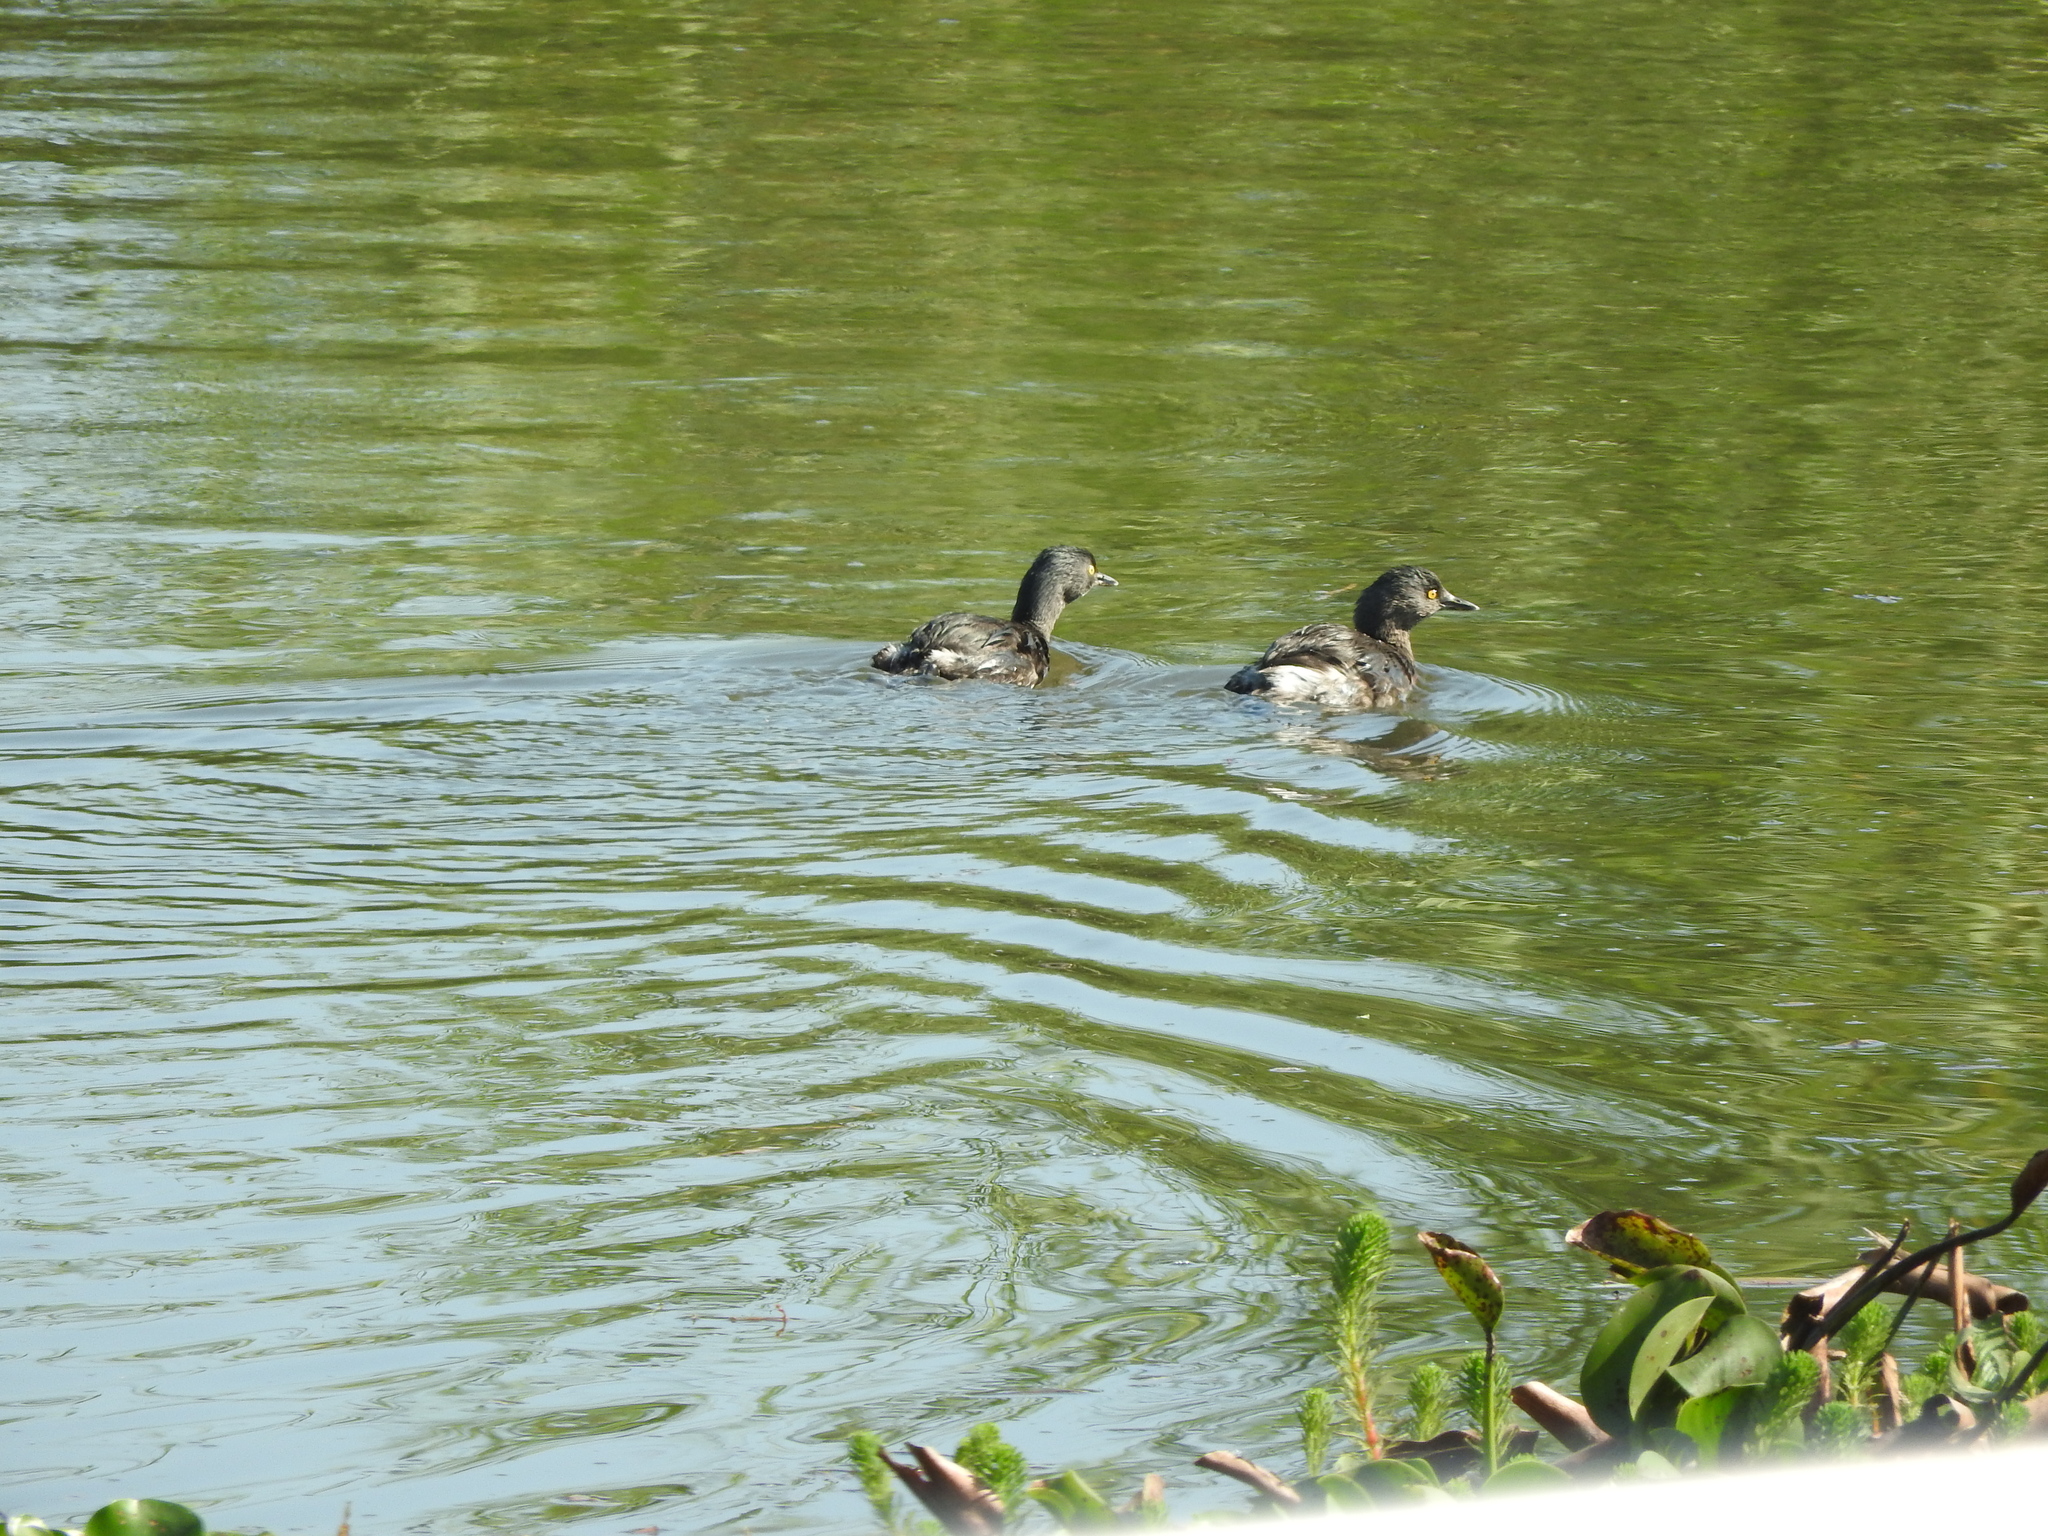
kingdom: Animalia
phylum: Chordata
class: Aves
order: Podicipediformes
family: Podicipedidae
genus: Tachybaptus
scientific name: Tachybaptus dominicus
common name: Least grebe
